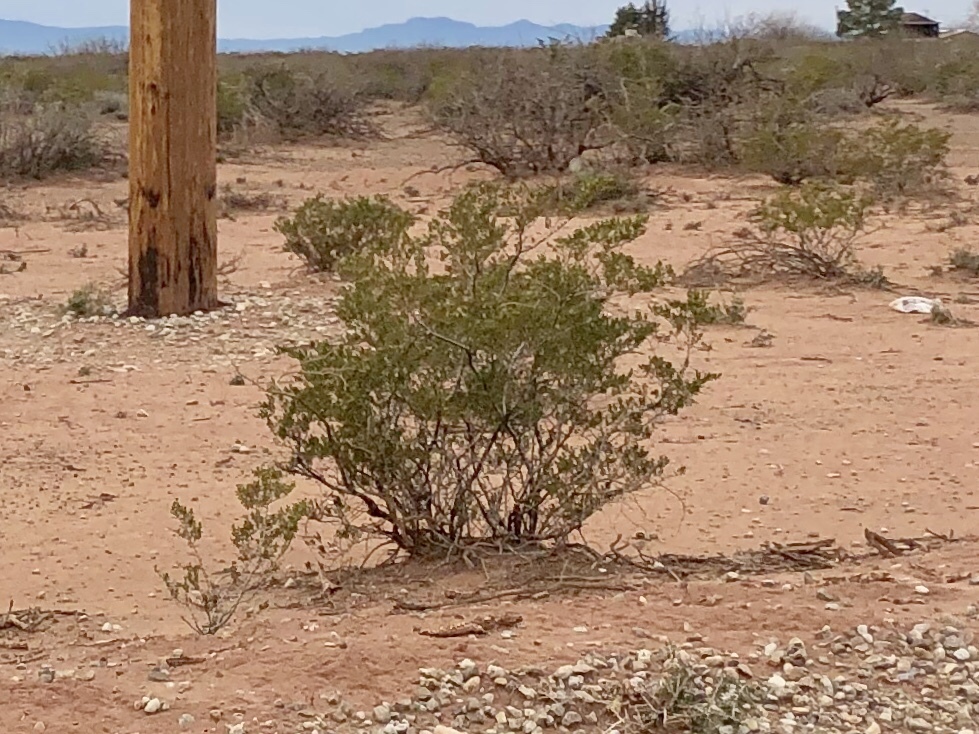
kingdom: Plantae
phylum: Tracheophyta
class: Magnoliopsida
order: Zygophyllales
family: Zygophyllaceae
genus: Larrea
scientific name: Larrea tridentata
